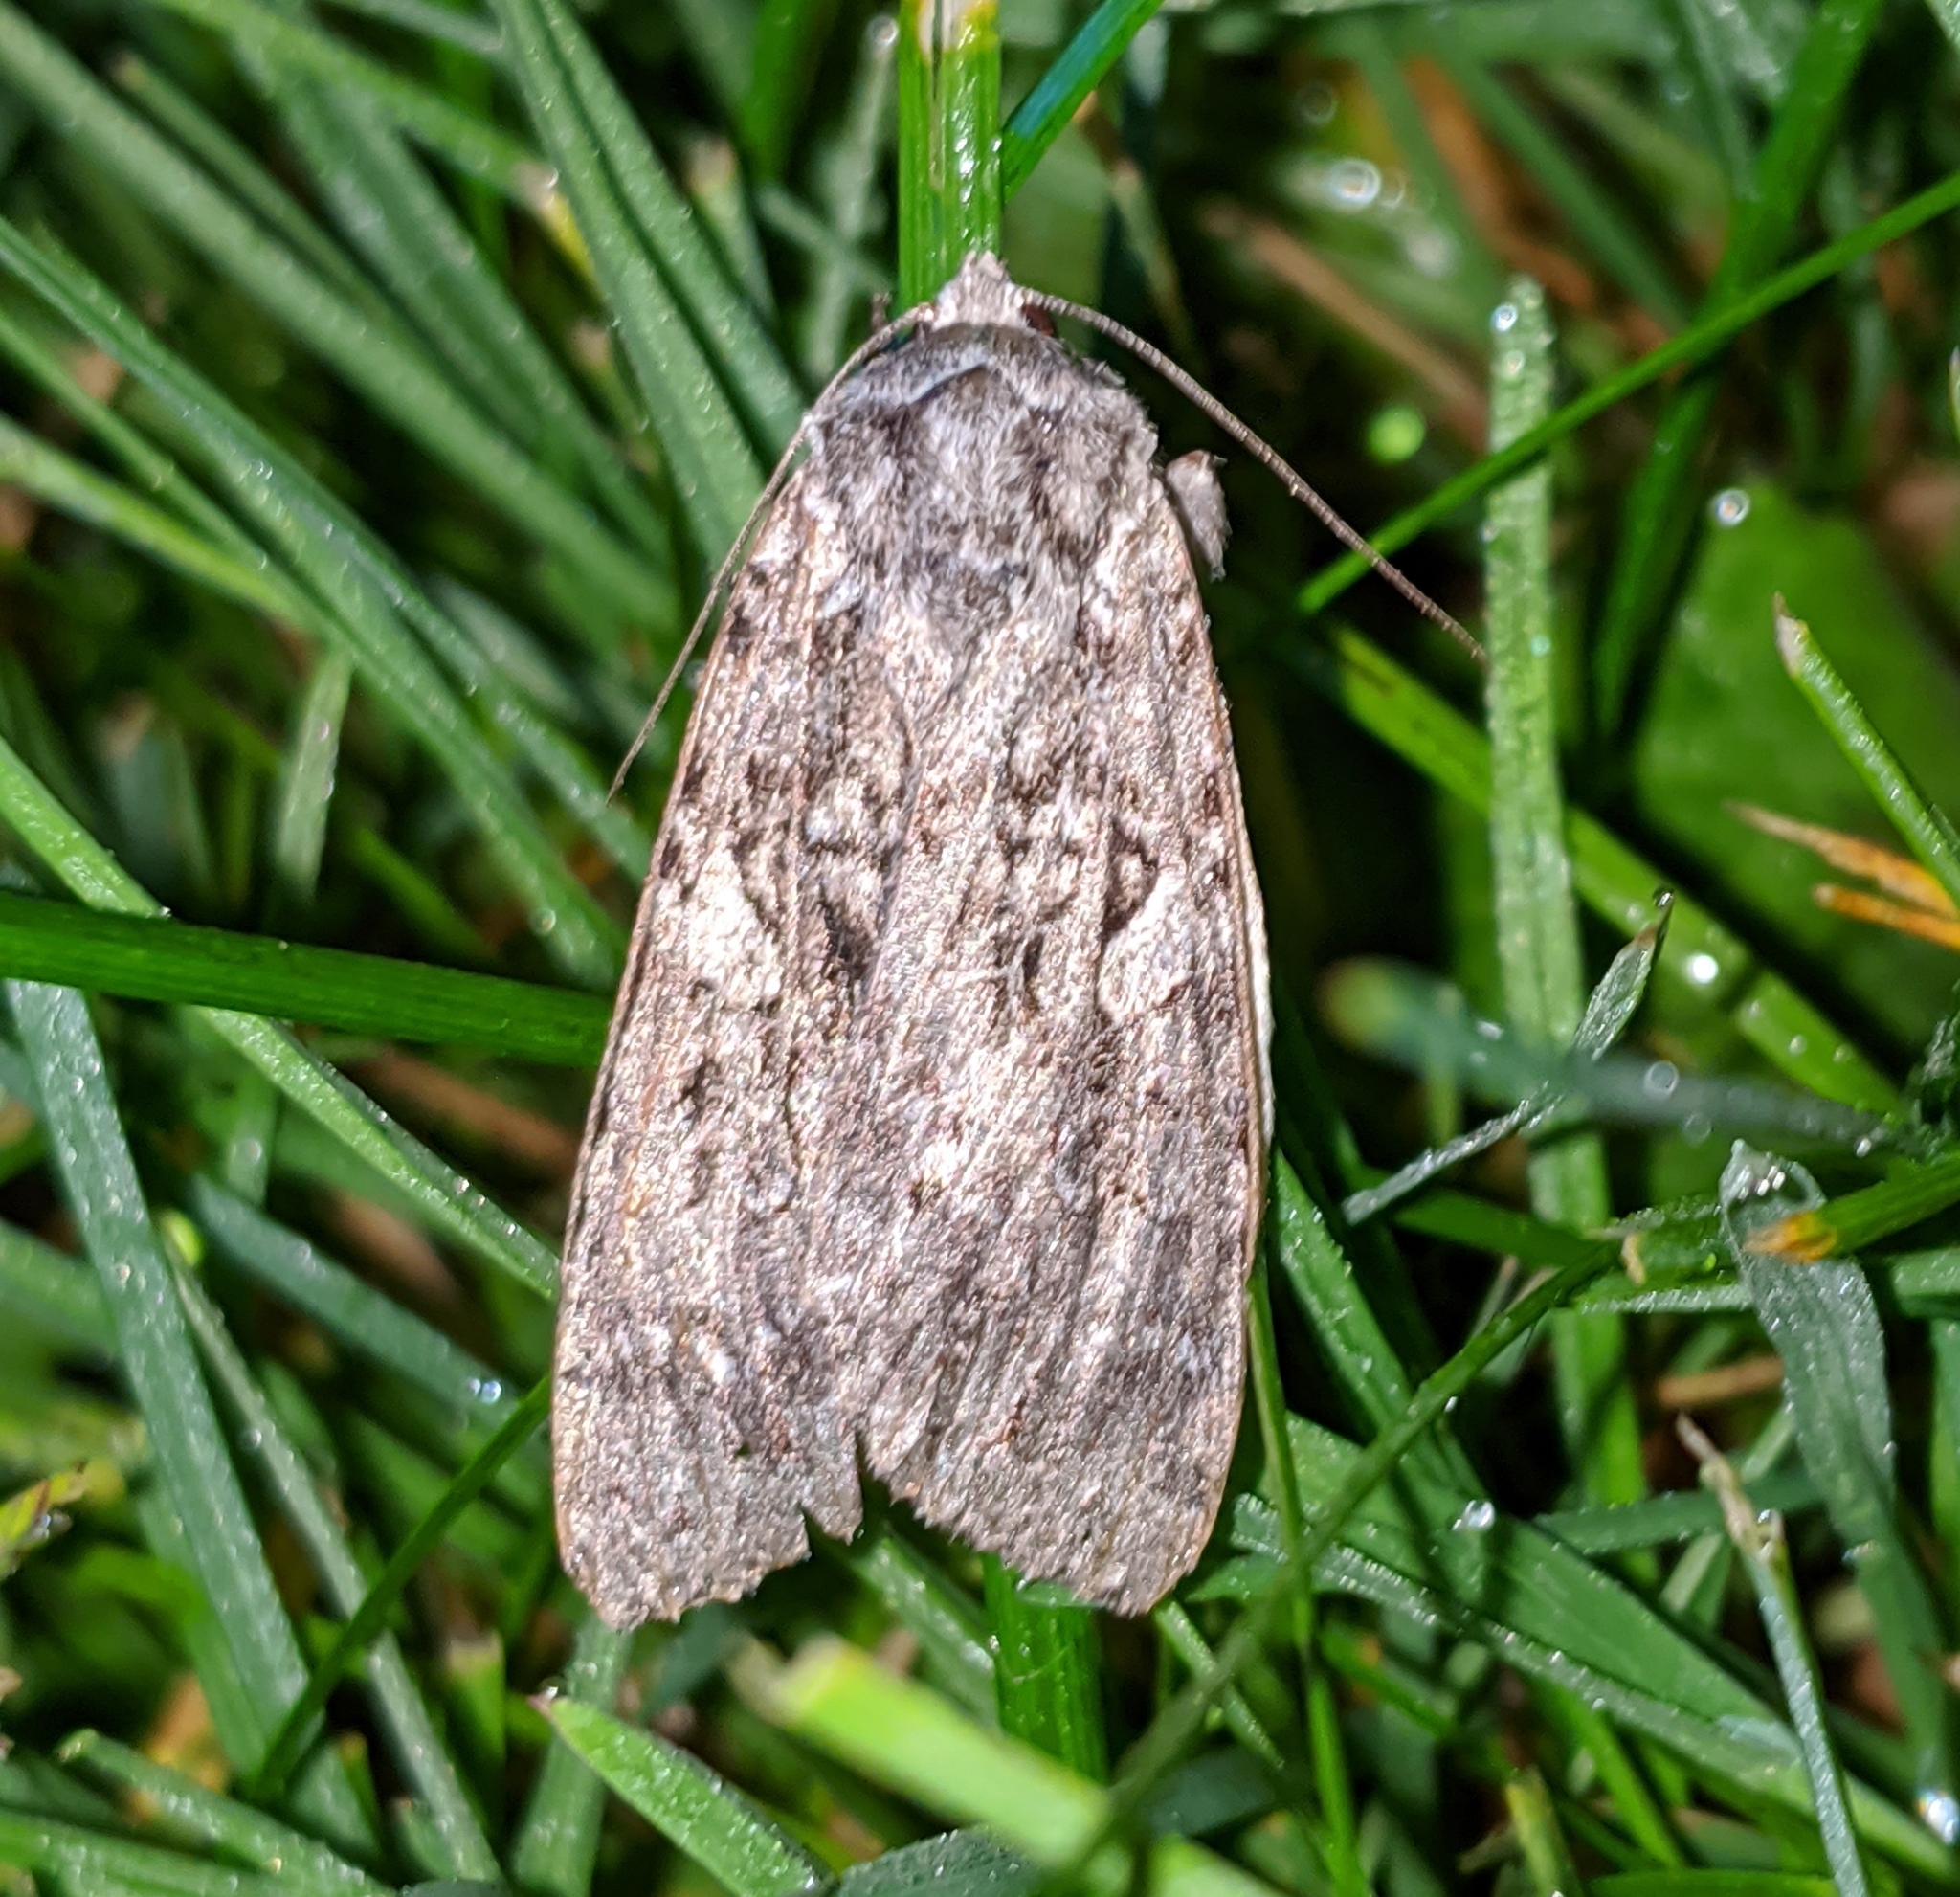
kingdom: Animalia
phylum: Arthropoda
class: Insecta
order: Lepidoptera
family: Noctuidae
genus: Eurois
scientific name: Eurois occulta
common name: Great brocade
